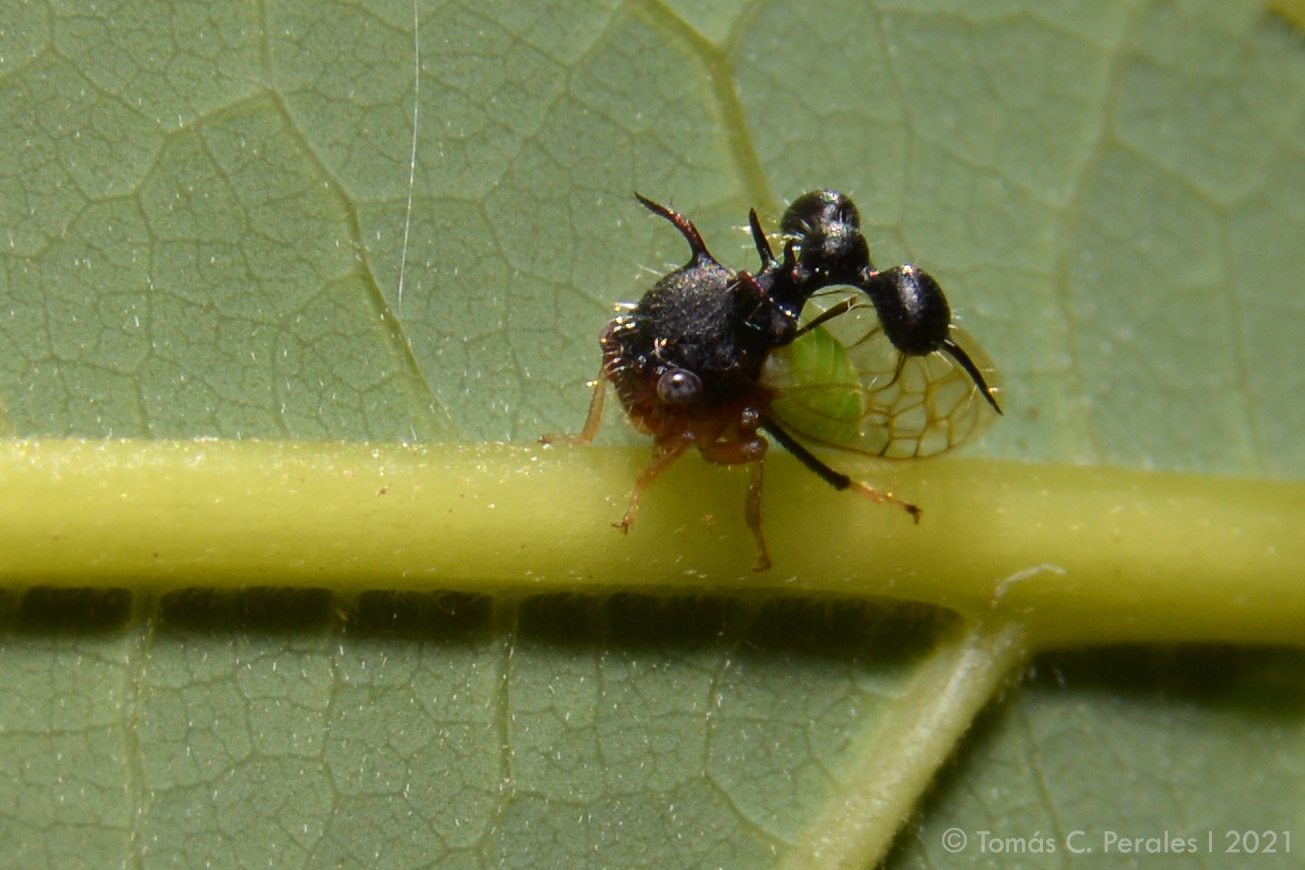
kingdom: Animalia
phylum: Arthropoda
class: Insecta
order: Hemiptera
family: Membracidae
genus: Cyphonia
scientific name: Cyphonia clavata
